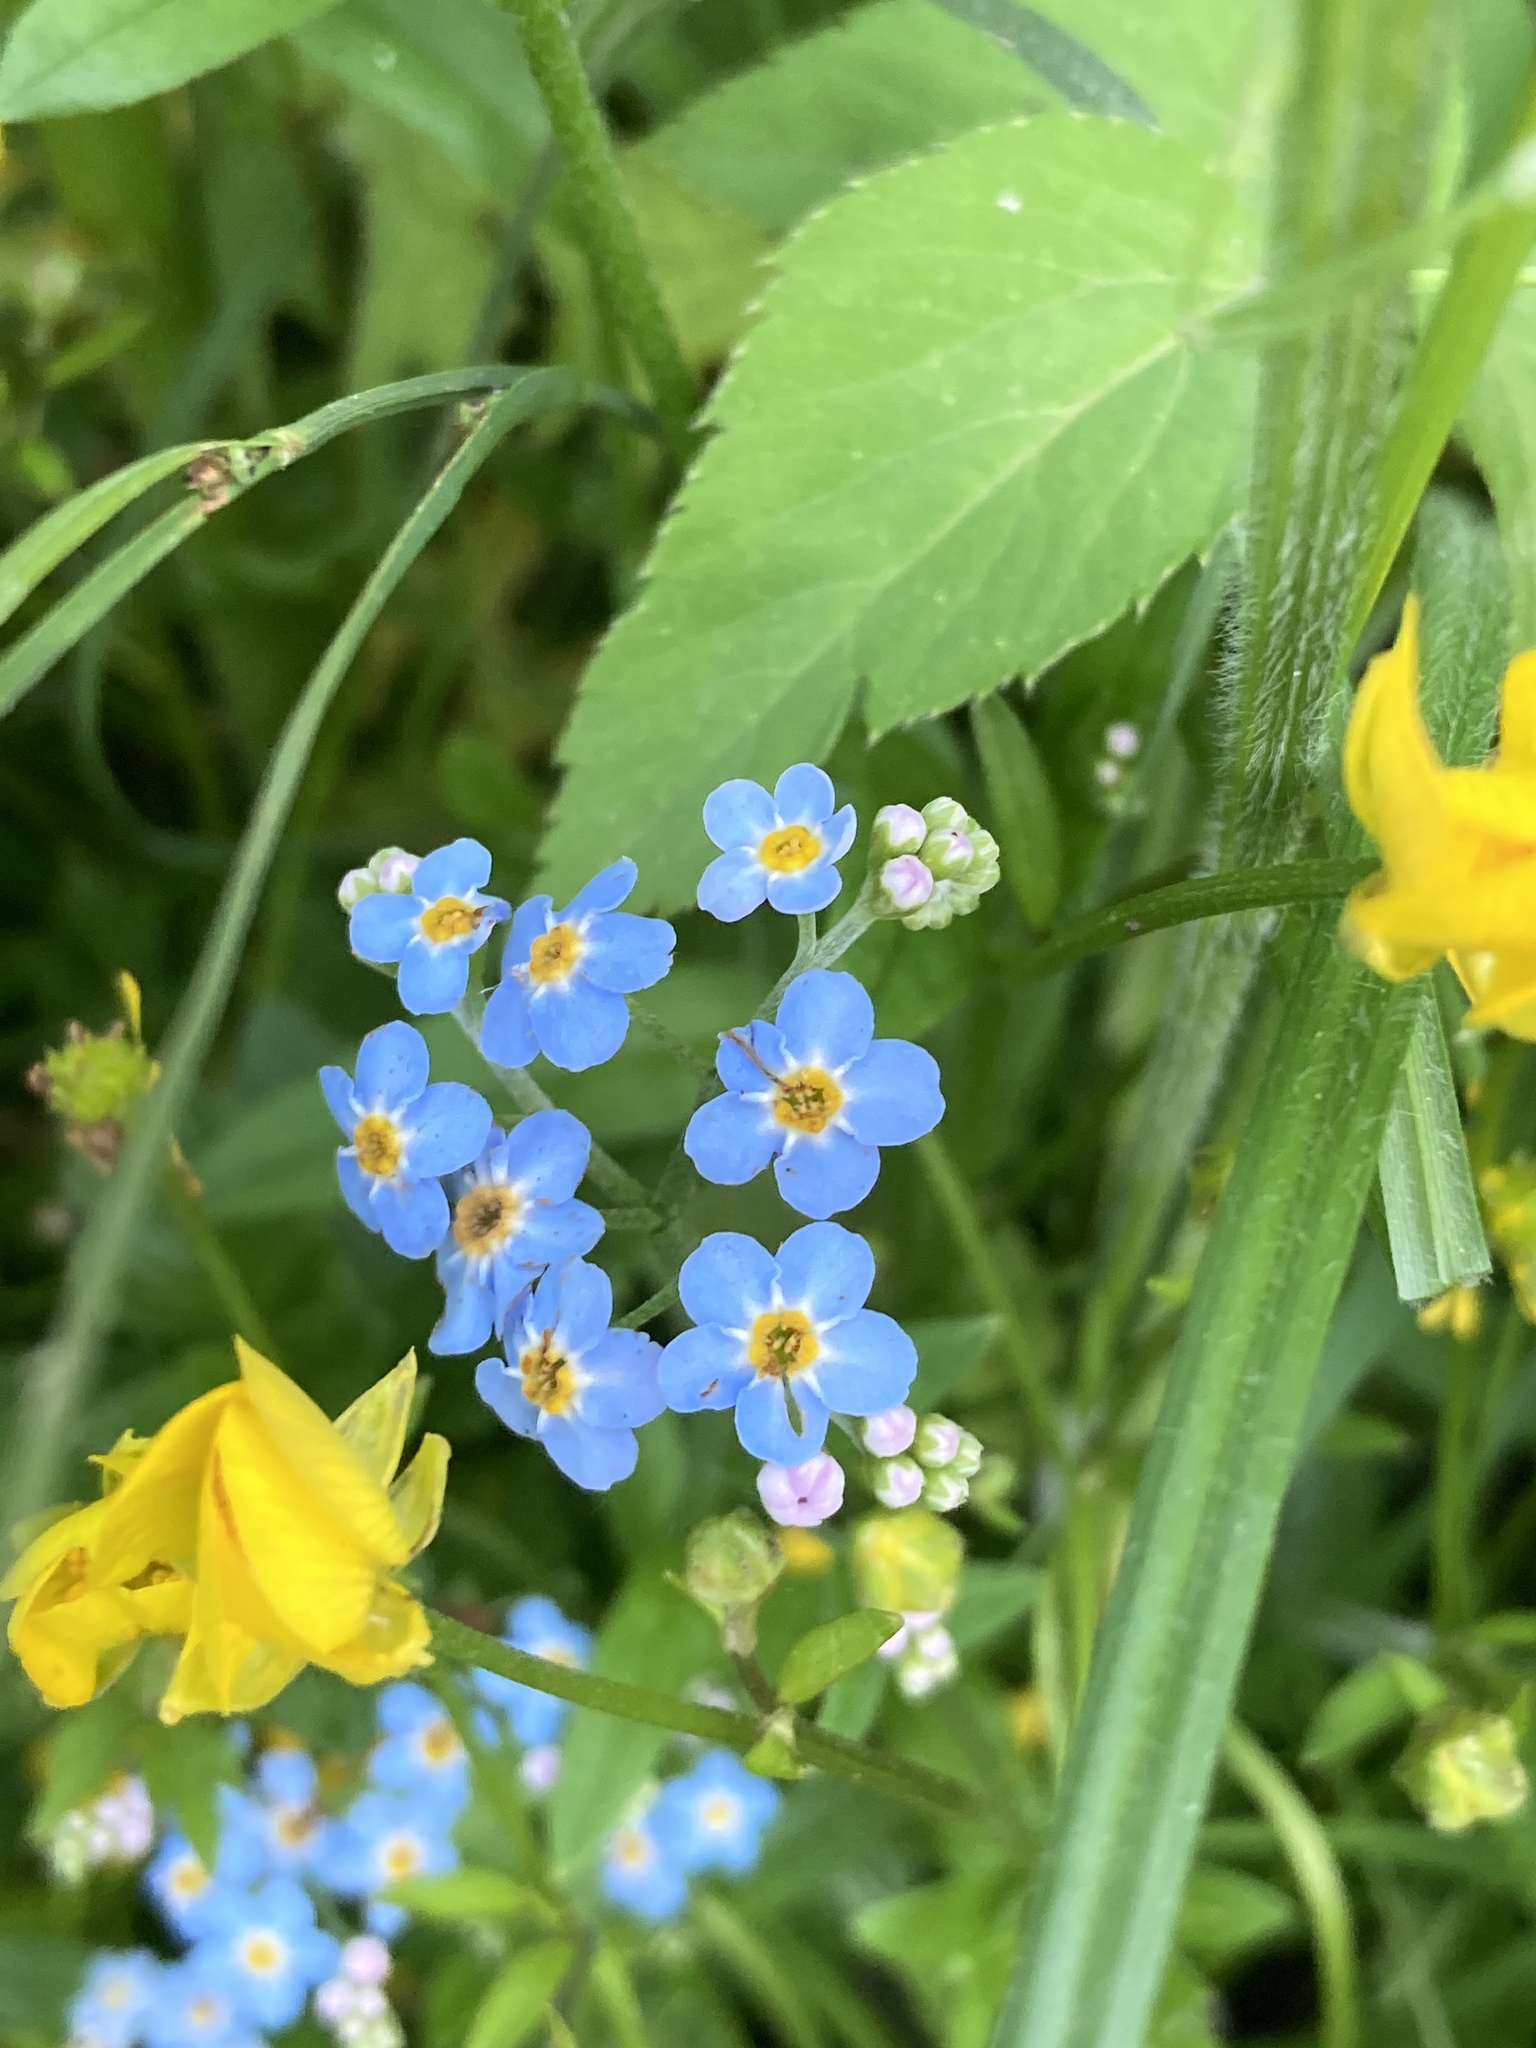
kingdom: Plantae
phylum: Tracheophyta
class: Magnoliopsida
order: Boraginales
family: Boraginaceae
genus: Myosotis
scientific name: Myosotis scorpioides
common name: Water forget-me-not
